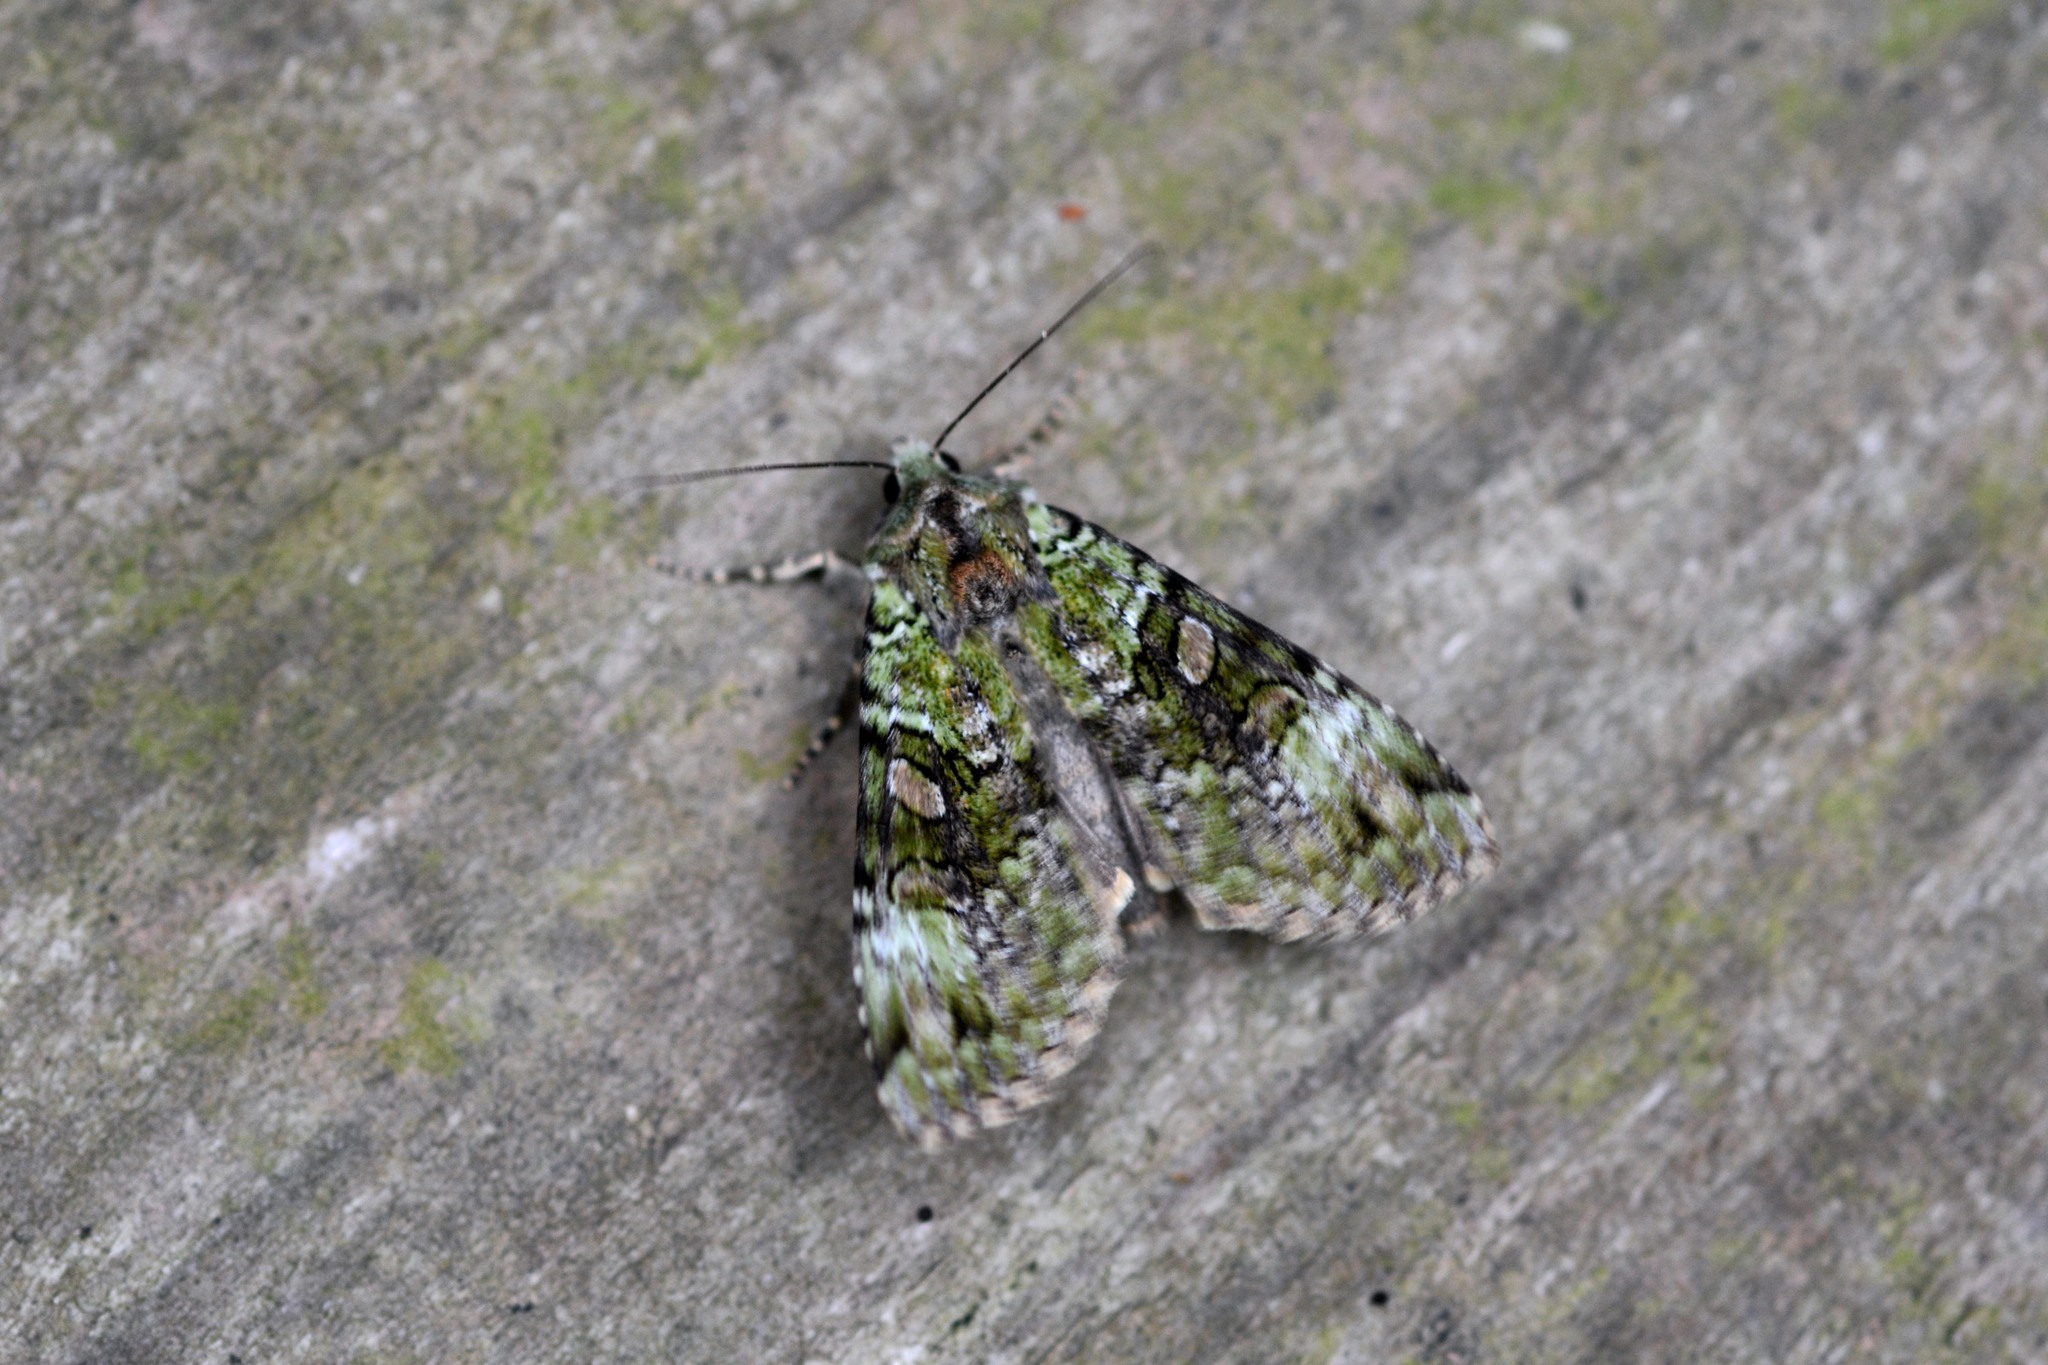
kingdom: Animalia
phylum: Arthropoda
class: Insecta
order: Lepidoptera
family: Noctuidae
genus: Anaplectoides
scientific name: Anaplectoides prasina
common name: Green arches
